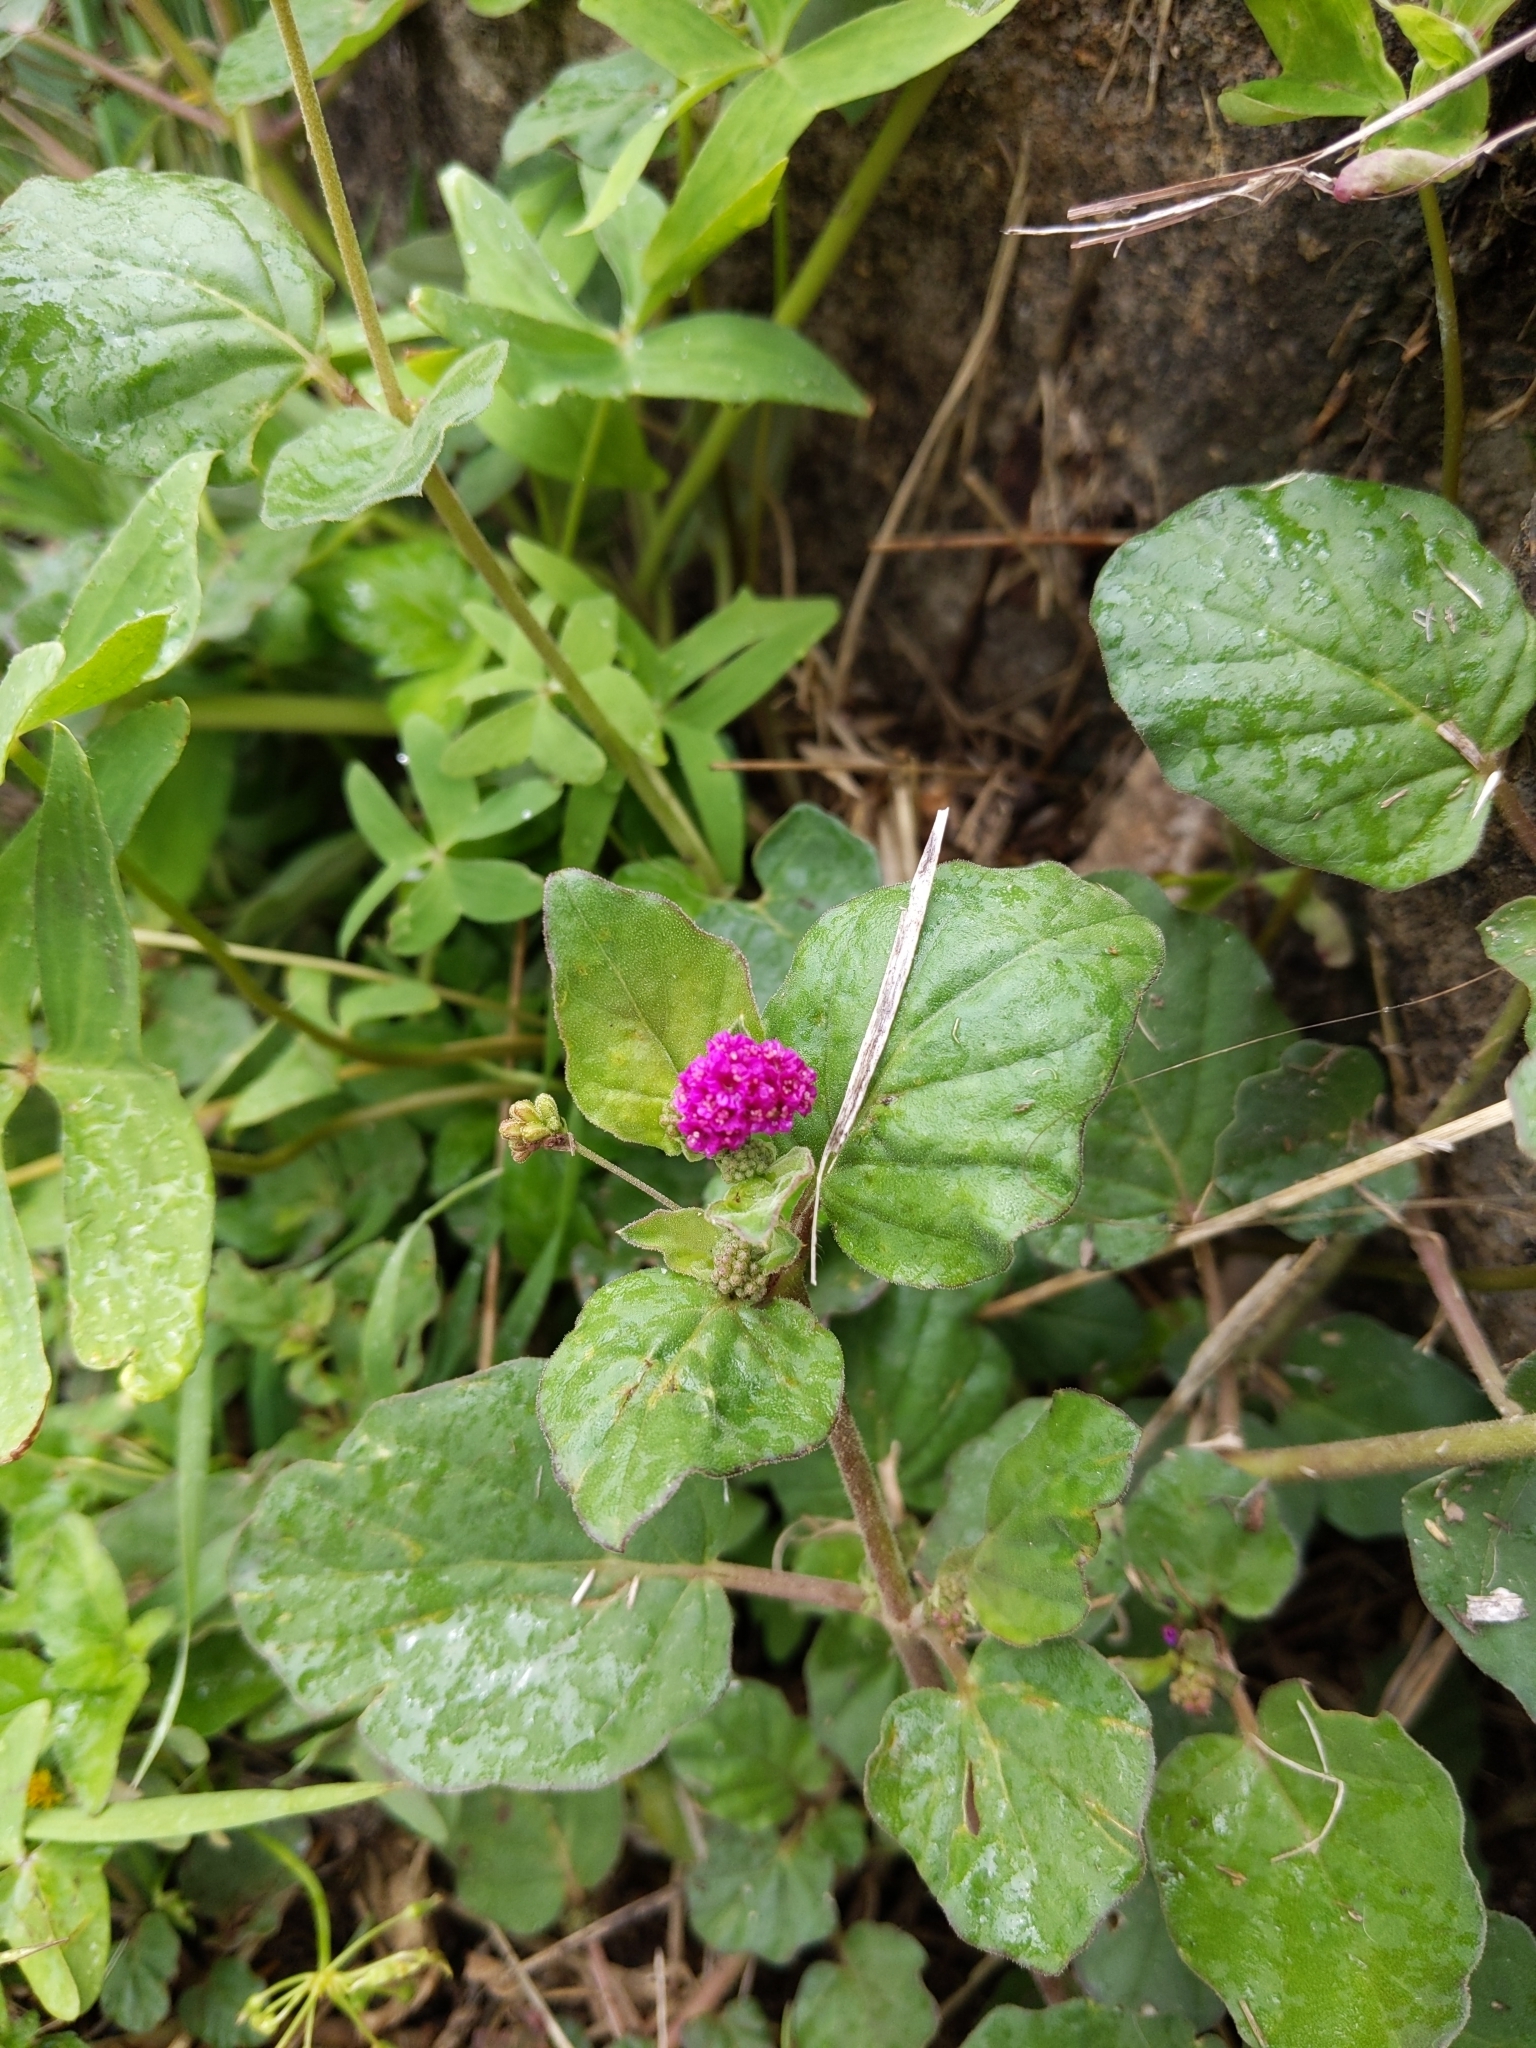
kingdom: Plantae
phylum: Tracheophyta
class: Magnoliopsida
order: Caryophyllales
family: Nyctaginaceae
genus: Boerhavia
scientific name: Boerhavia coccinea
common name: Scarlet spiderling
